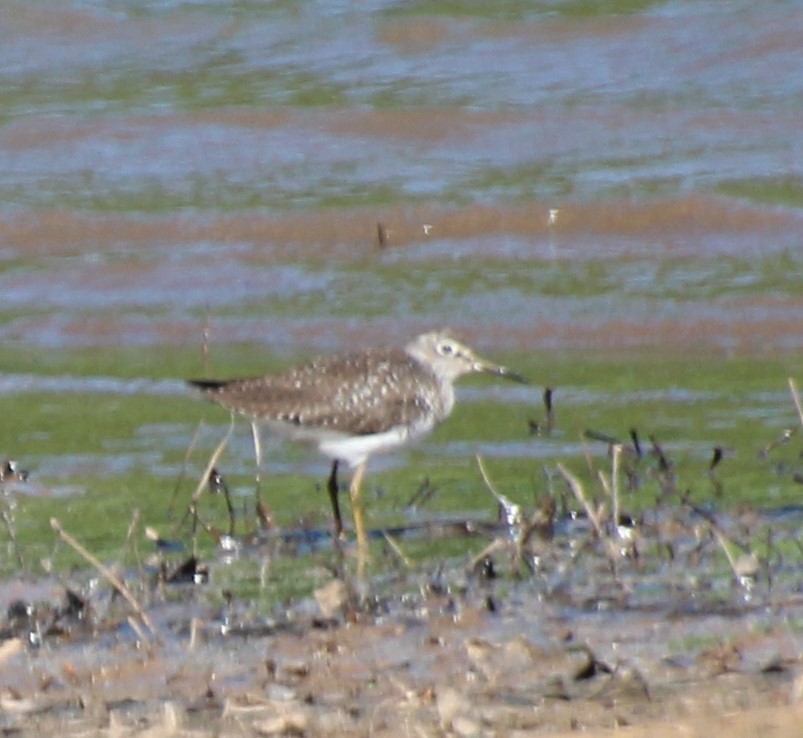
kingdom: Animalia
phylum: Chordata
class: Aves
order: Charadriiformes
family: Scolopacidae
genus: Tringa
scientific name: Tringa solitaria
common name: Solitary sandpiper
